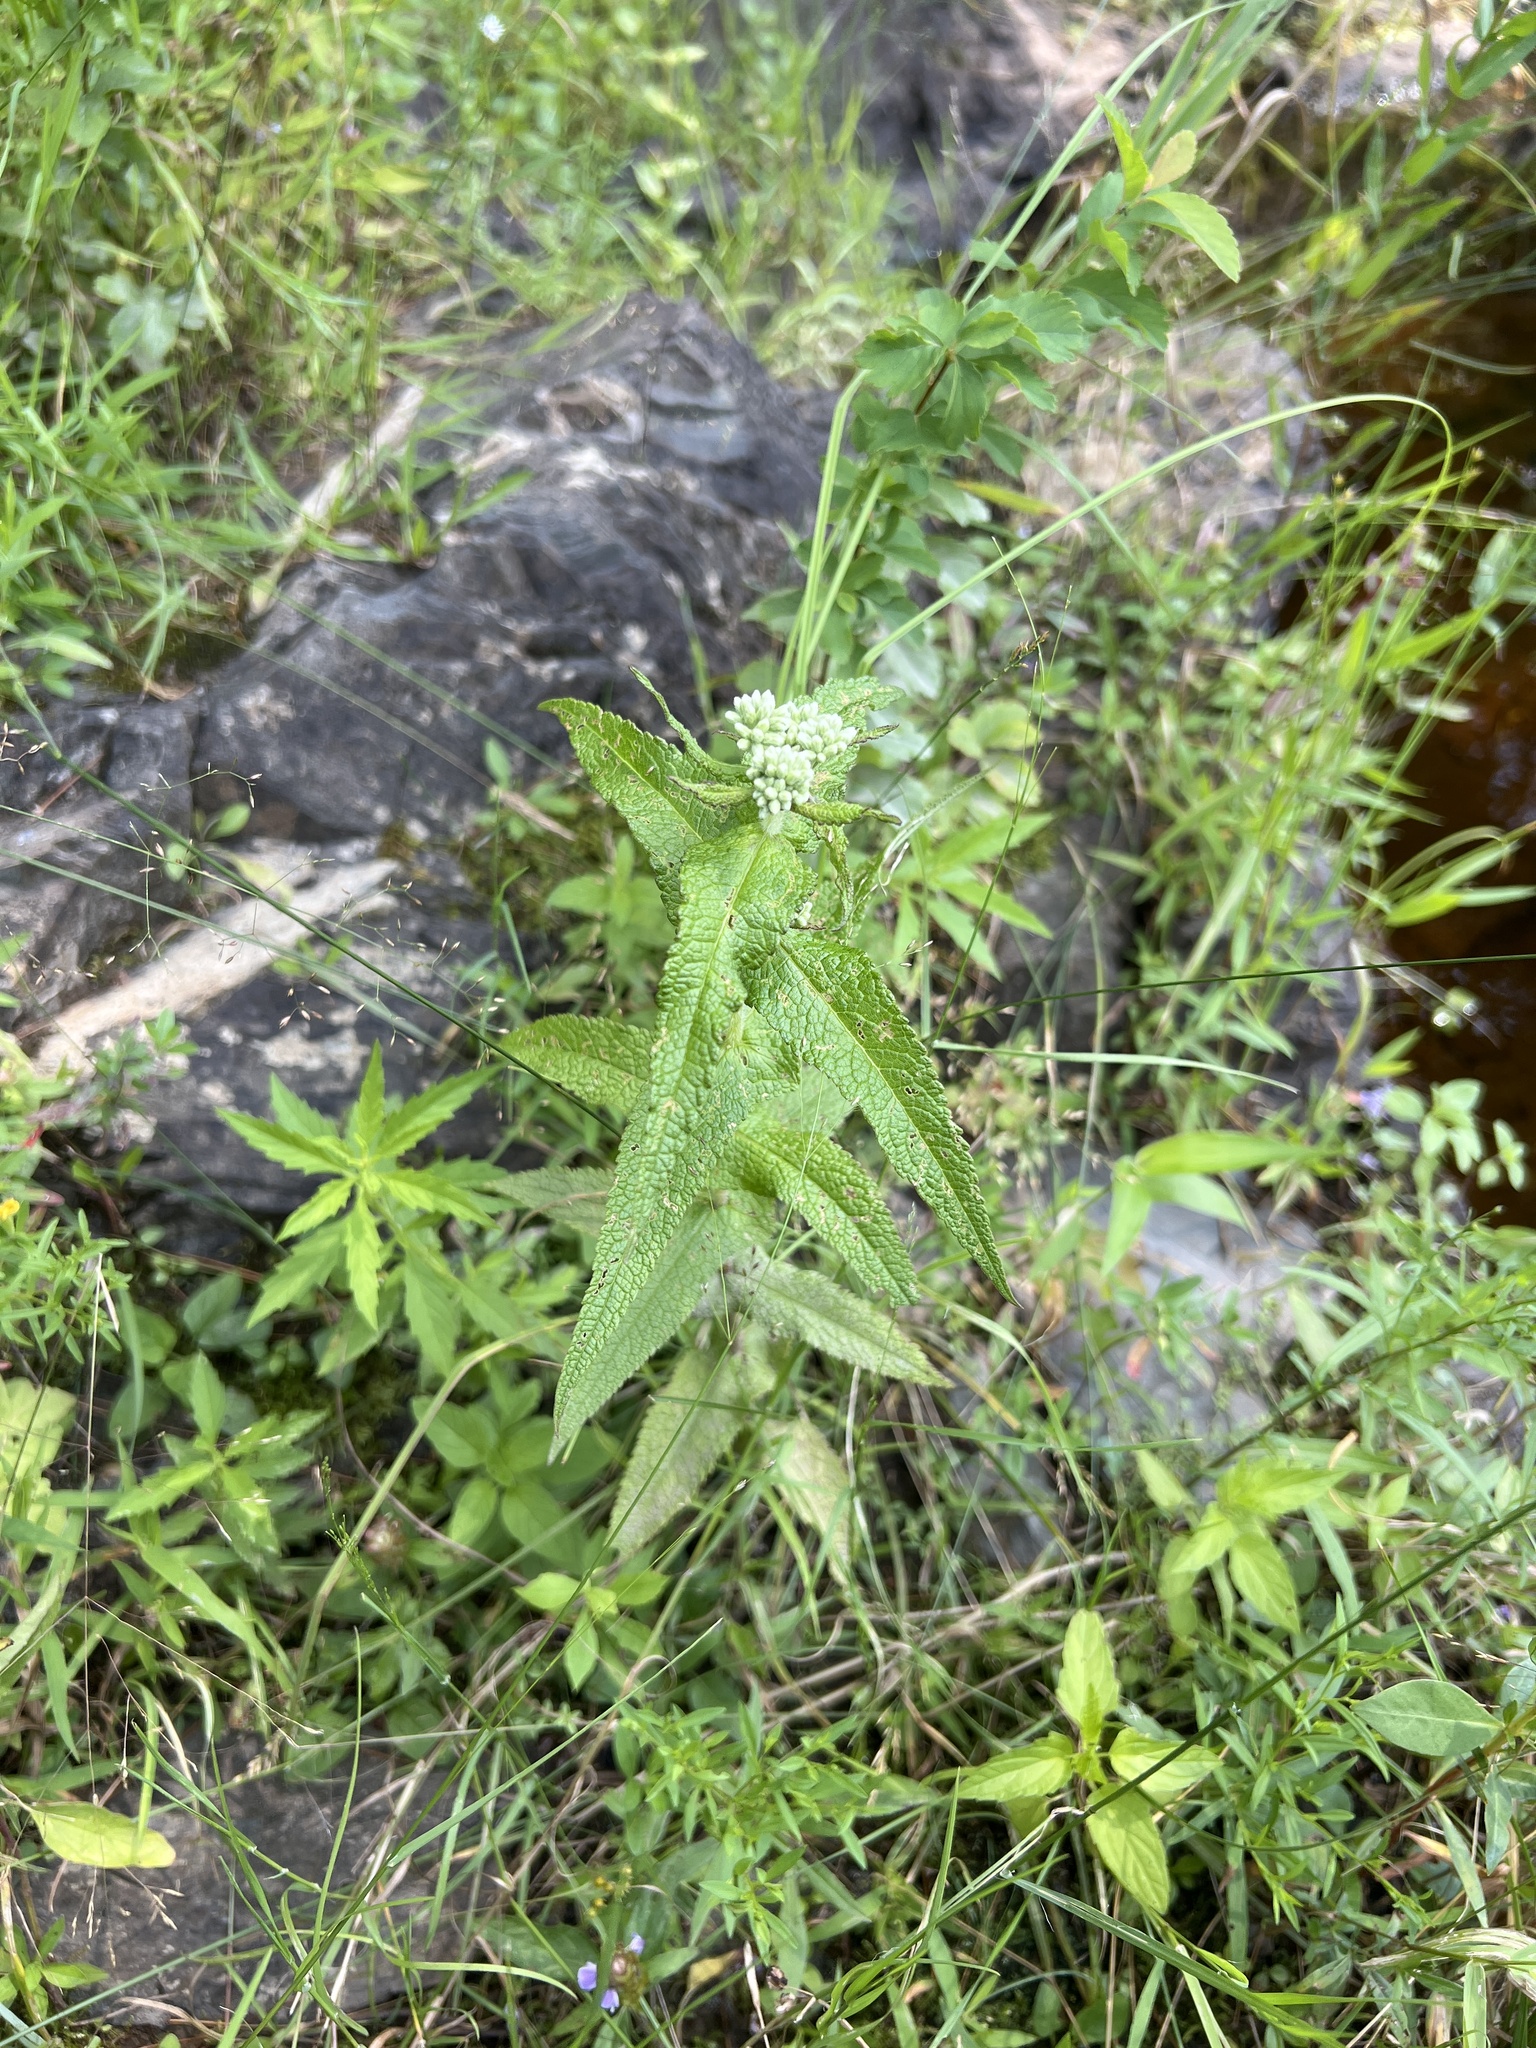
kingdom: Plantae
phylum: Tracheophyta
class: Magnoliopsida
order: Asterales
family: Asteraceae
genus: Eupatorium
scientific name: Eupatorium perfoliatum
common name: Boneset
